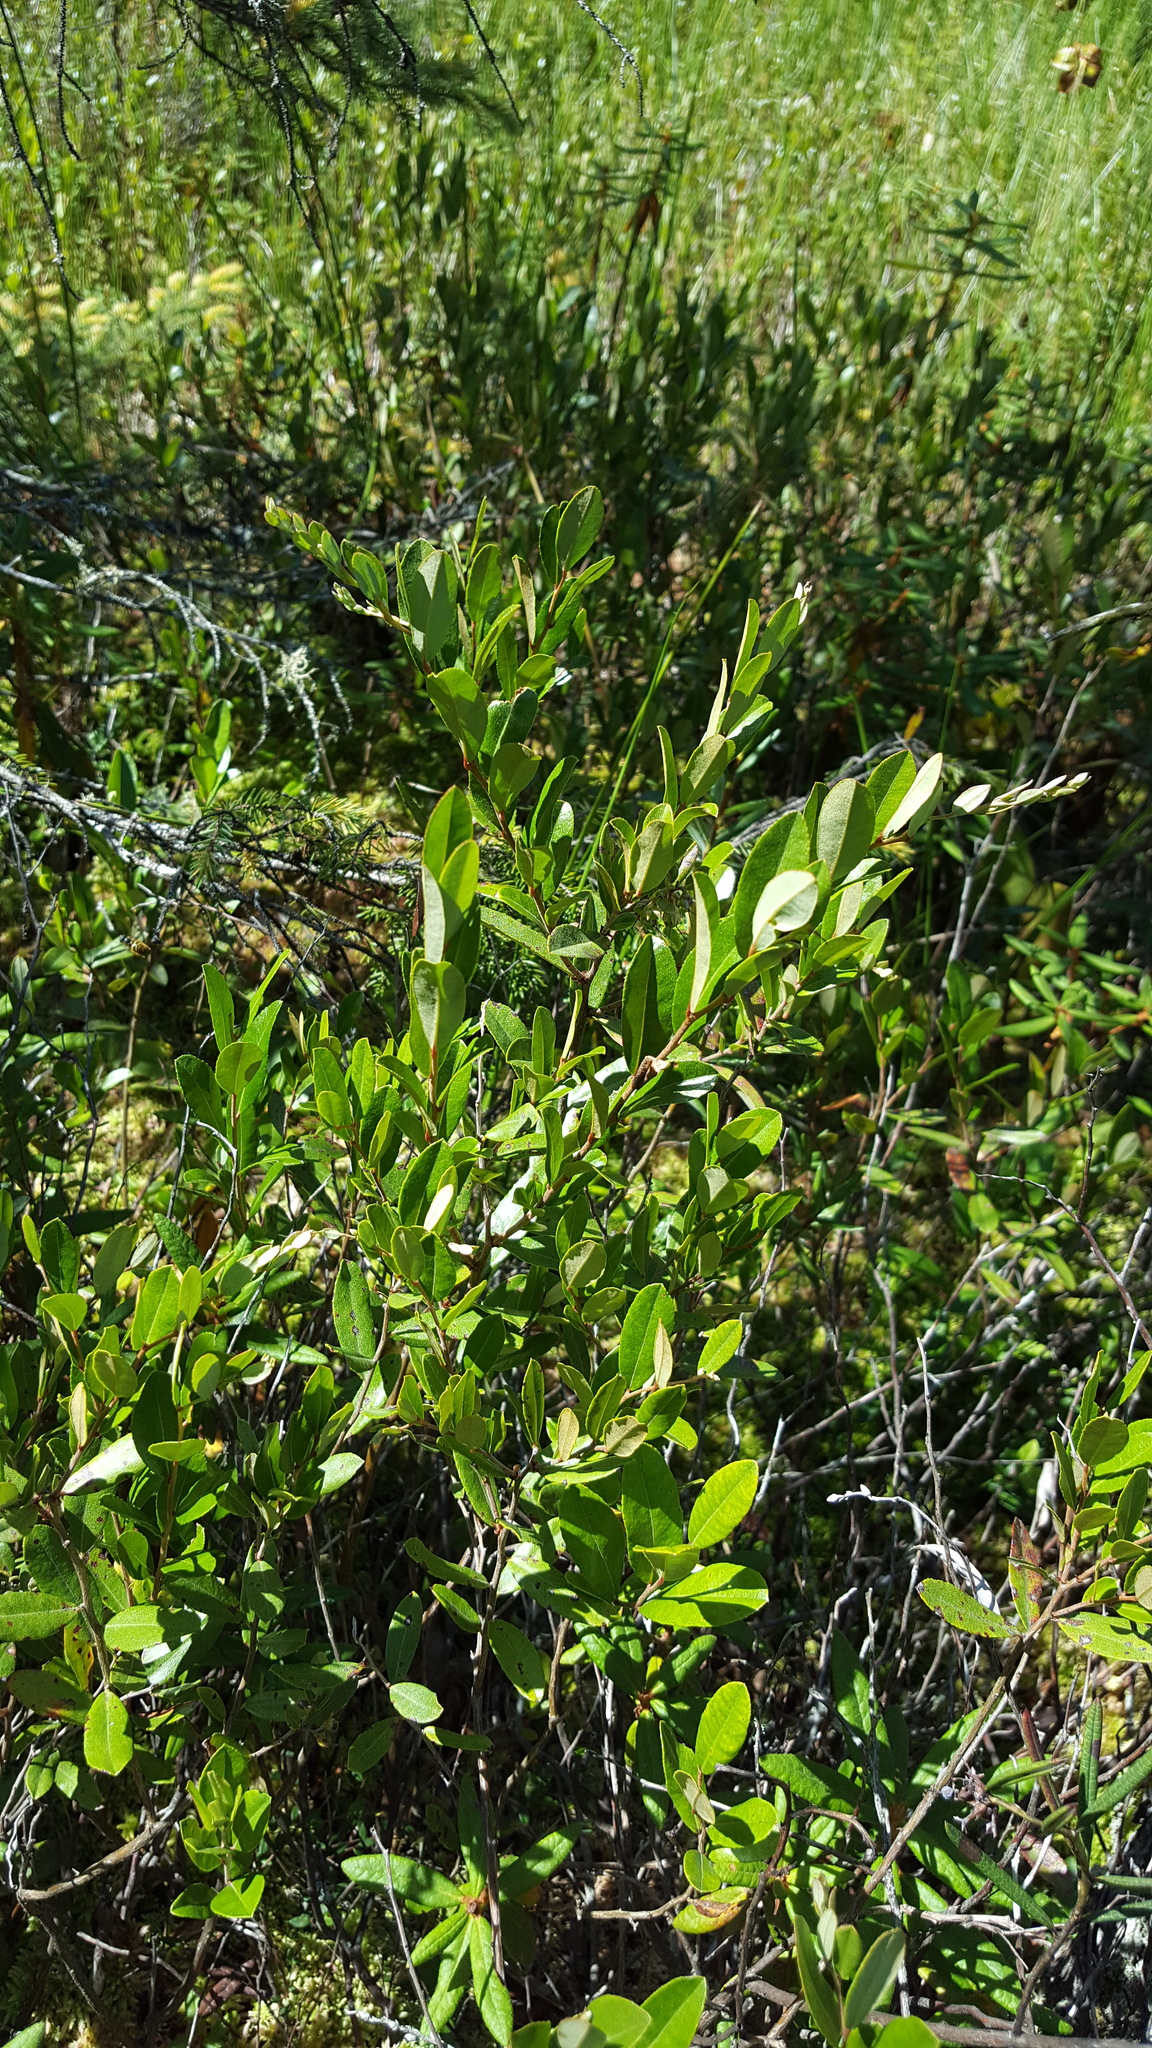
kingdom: Plantae
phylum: Tracheophyta
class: Magnoliopsida
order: Ericales
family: Ericaceae
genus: Chamaedaphne
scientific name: Chamaedaphne calyculata
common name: Leatherleaf
